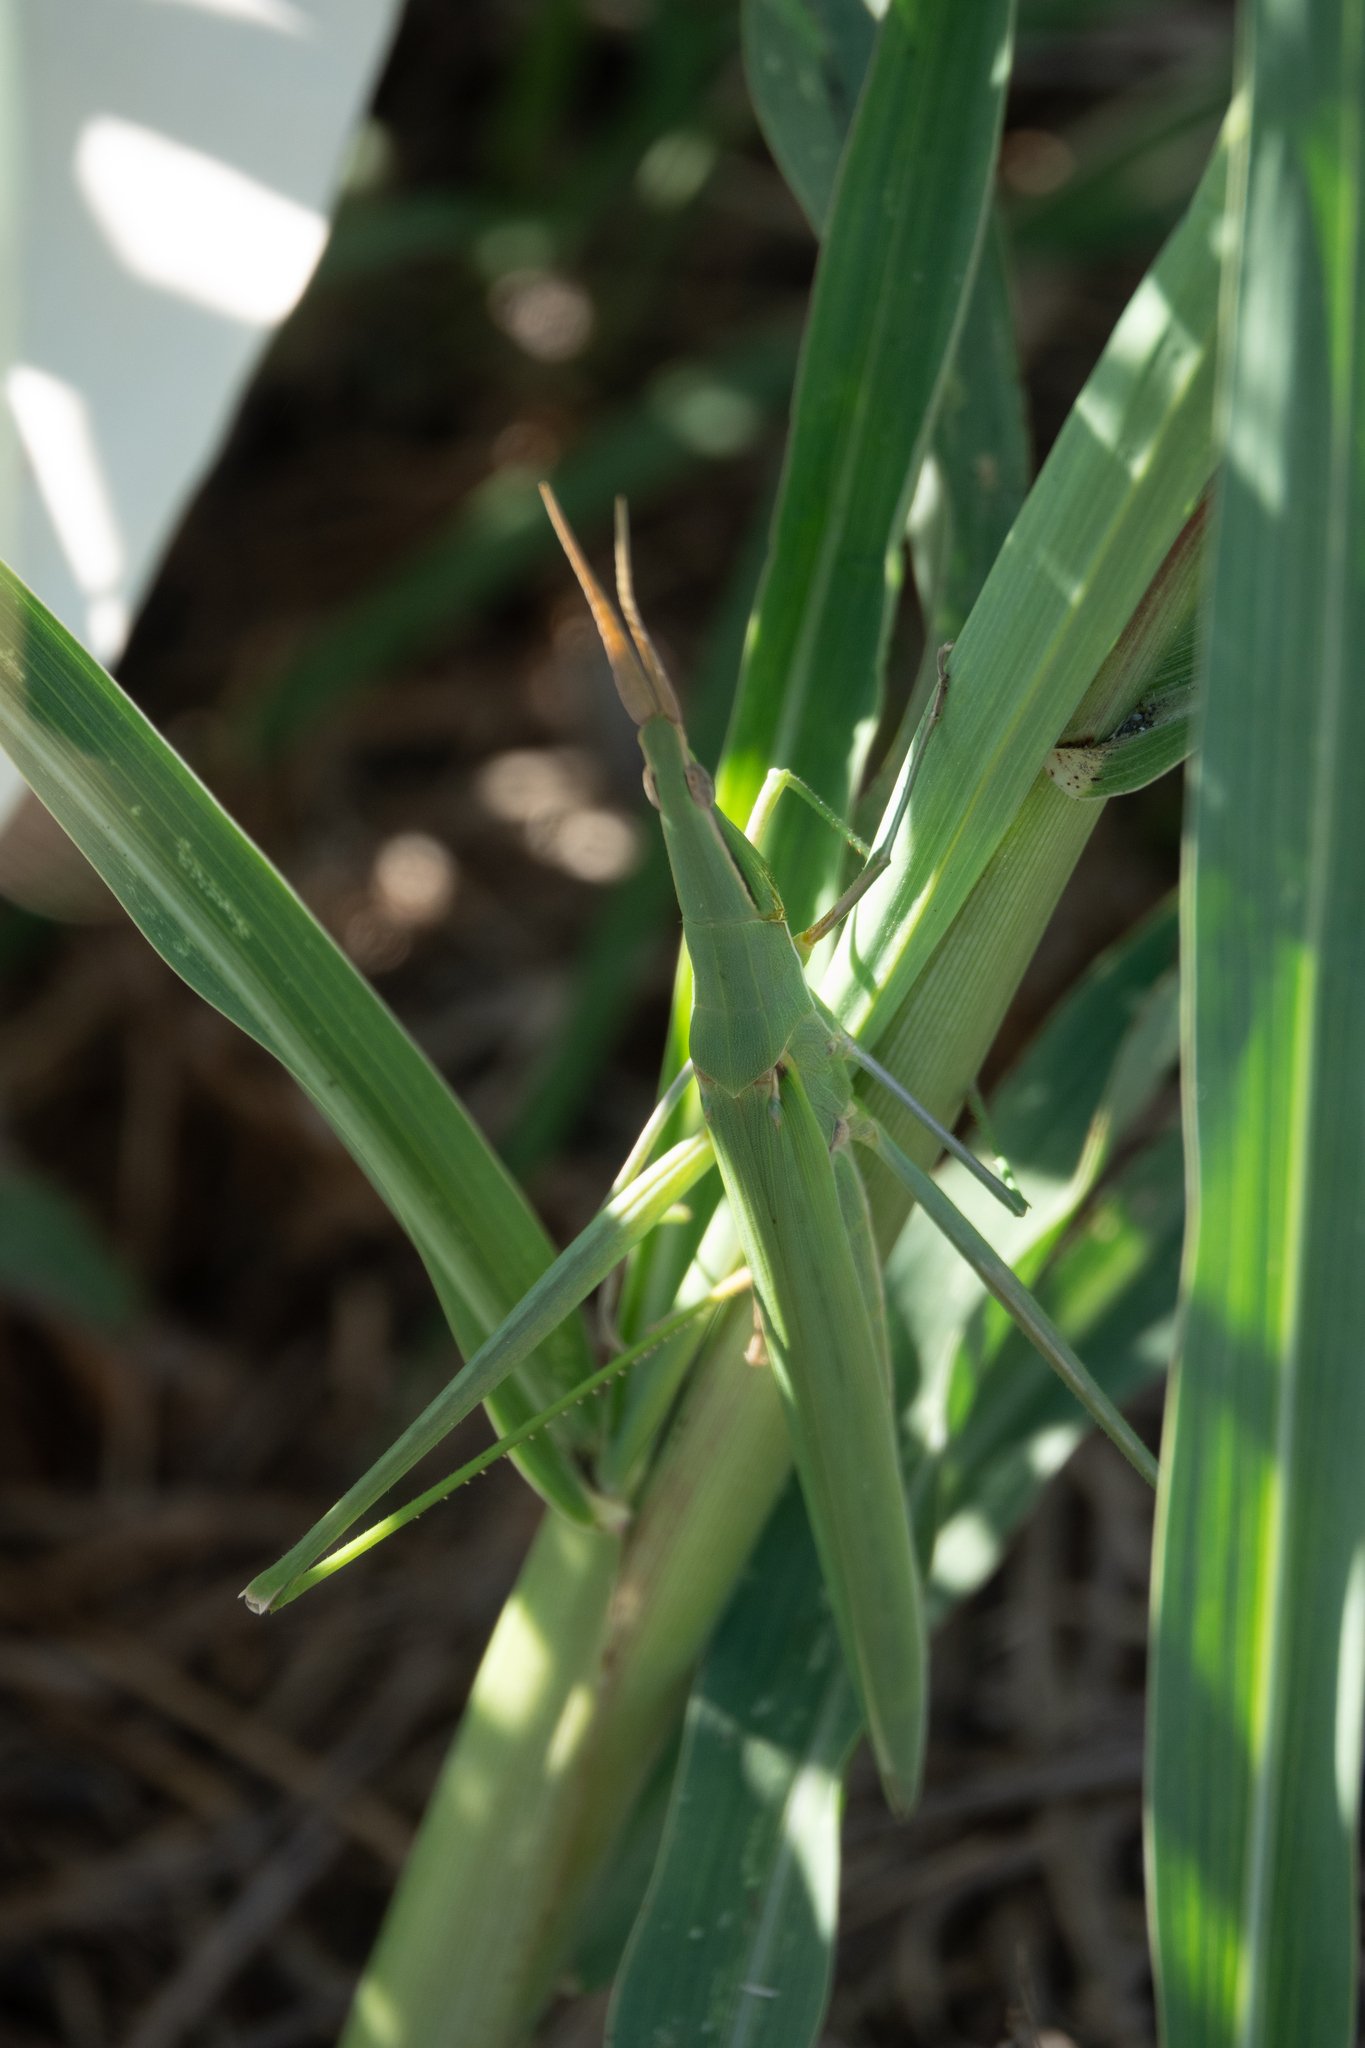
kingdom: Animalia
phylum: Arthropoda
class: Insecta
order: Orthoptera
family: Acrididae
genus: Acrida
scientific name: Acrida ungarica
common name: Common cone-headed grasshopper
